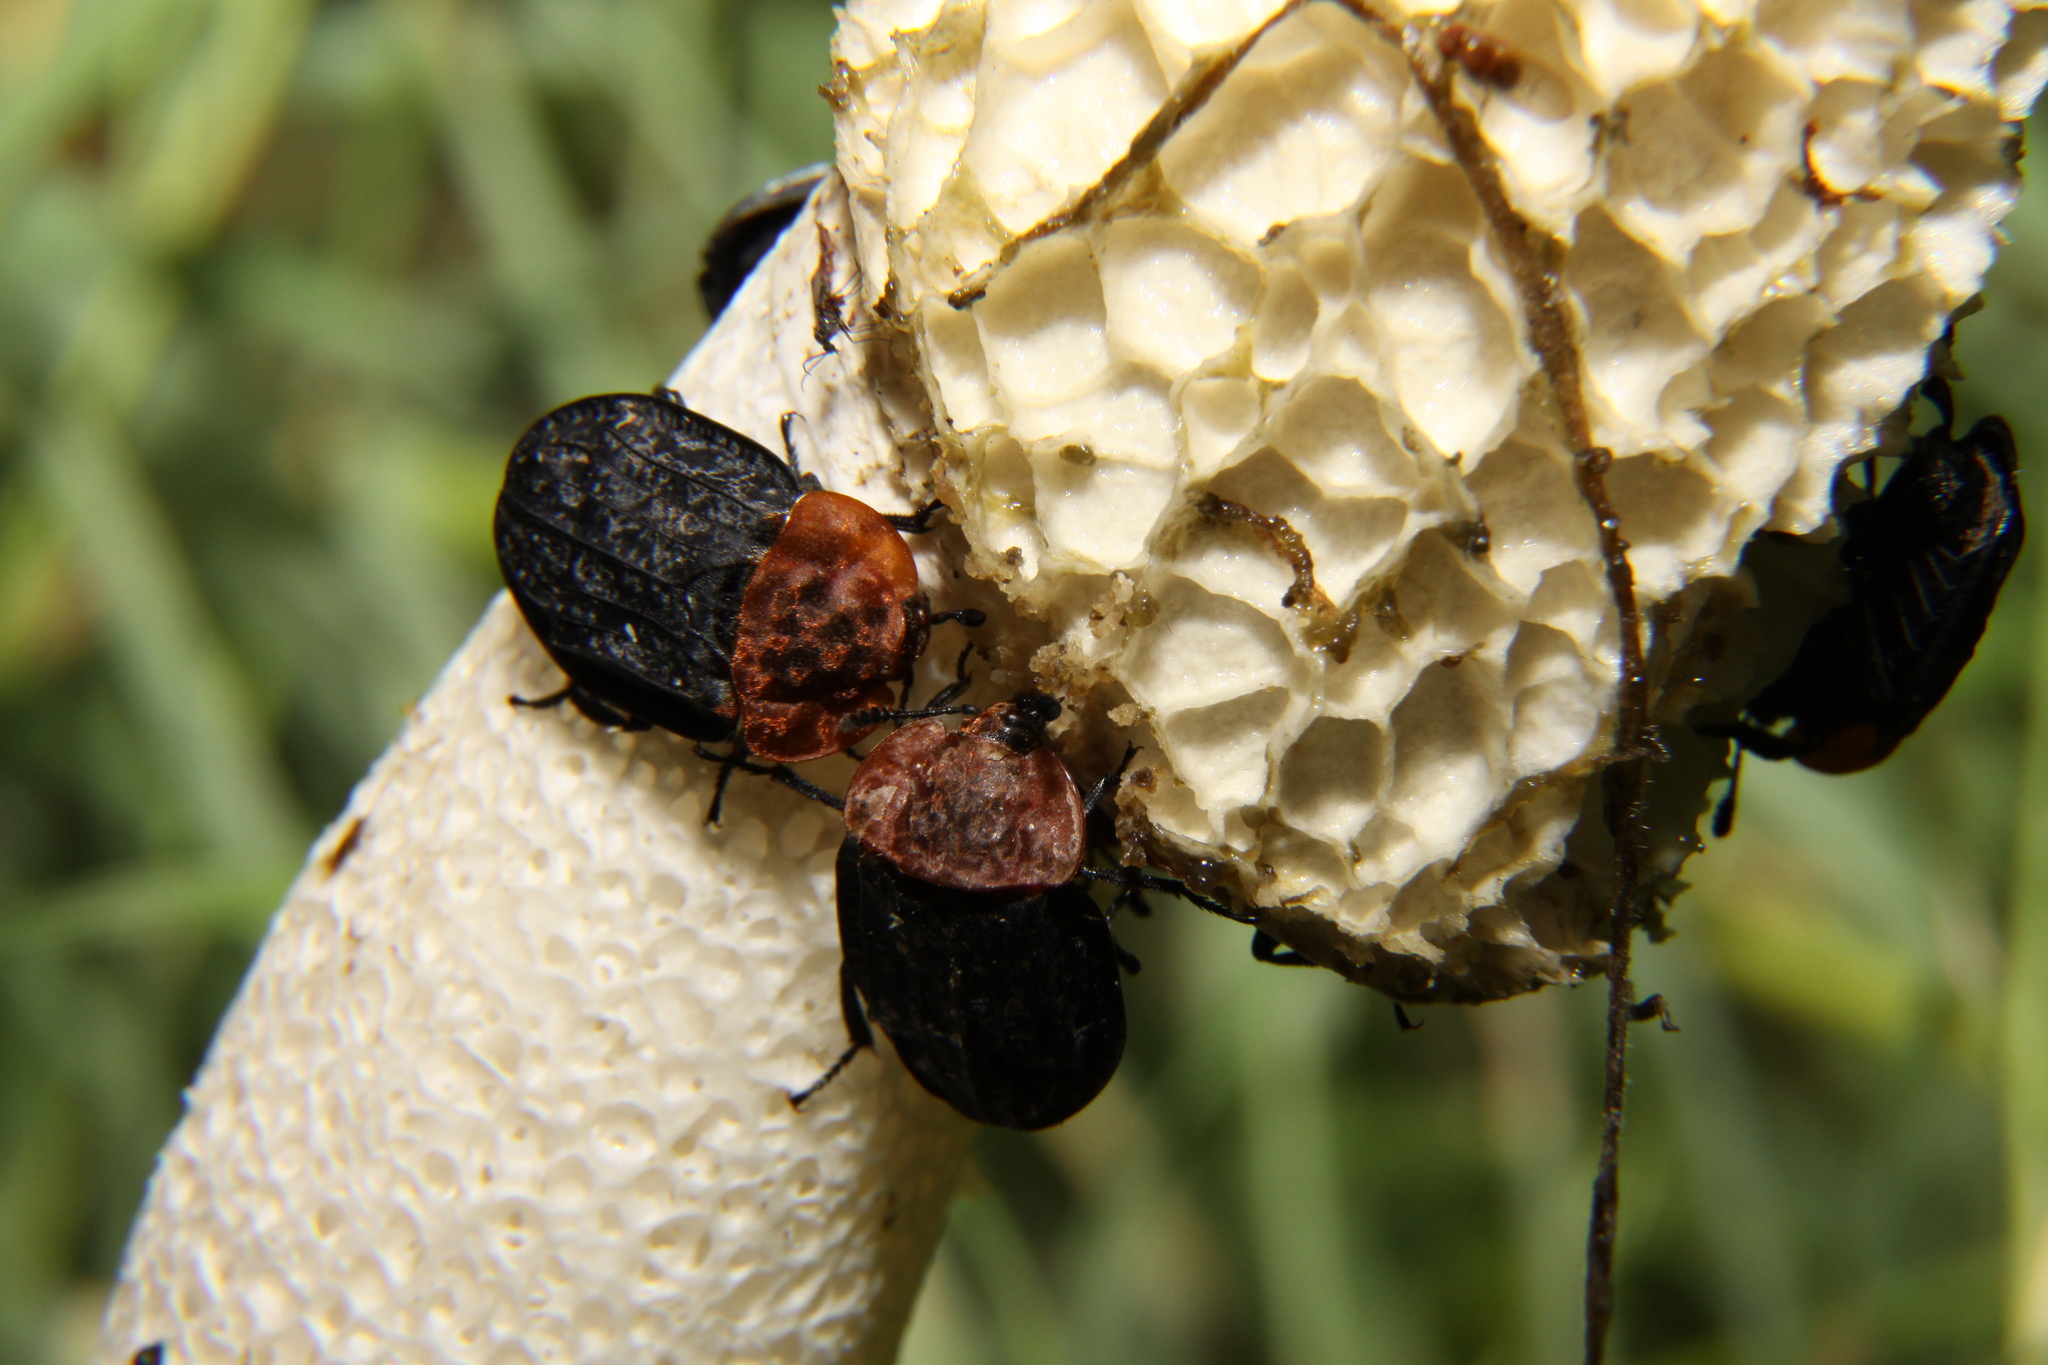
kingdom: Animalia
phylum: Arthropoda
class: Insecta
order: Coleoptera
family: Staphylinidae
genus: Oiceoptoma
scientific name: Oiceoptoma thoracicum
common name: Red-breasted carrion beetle
